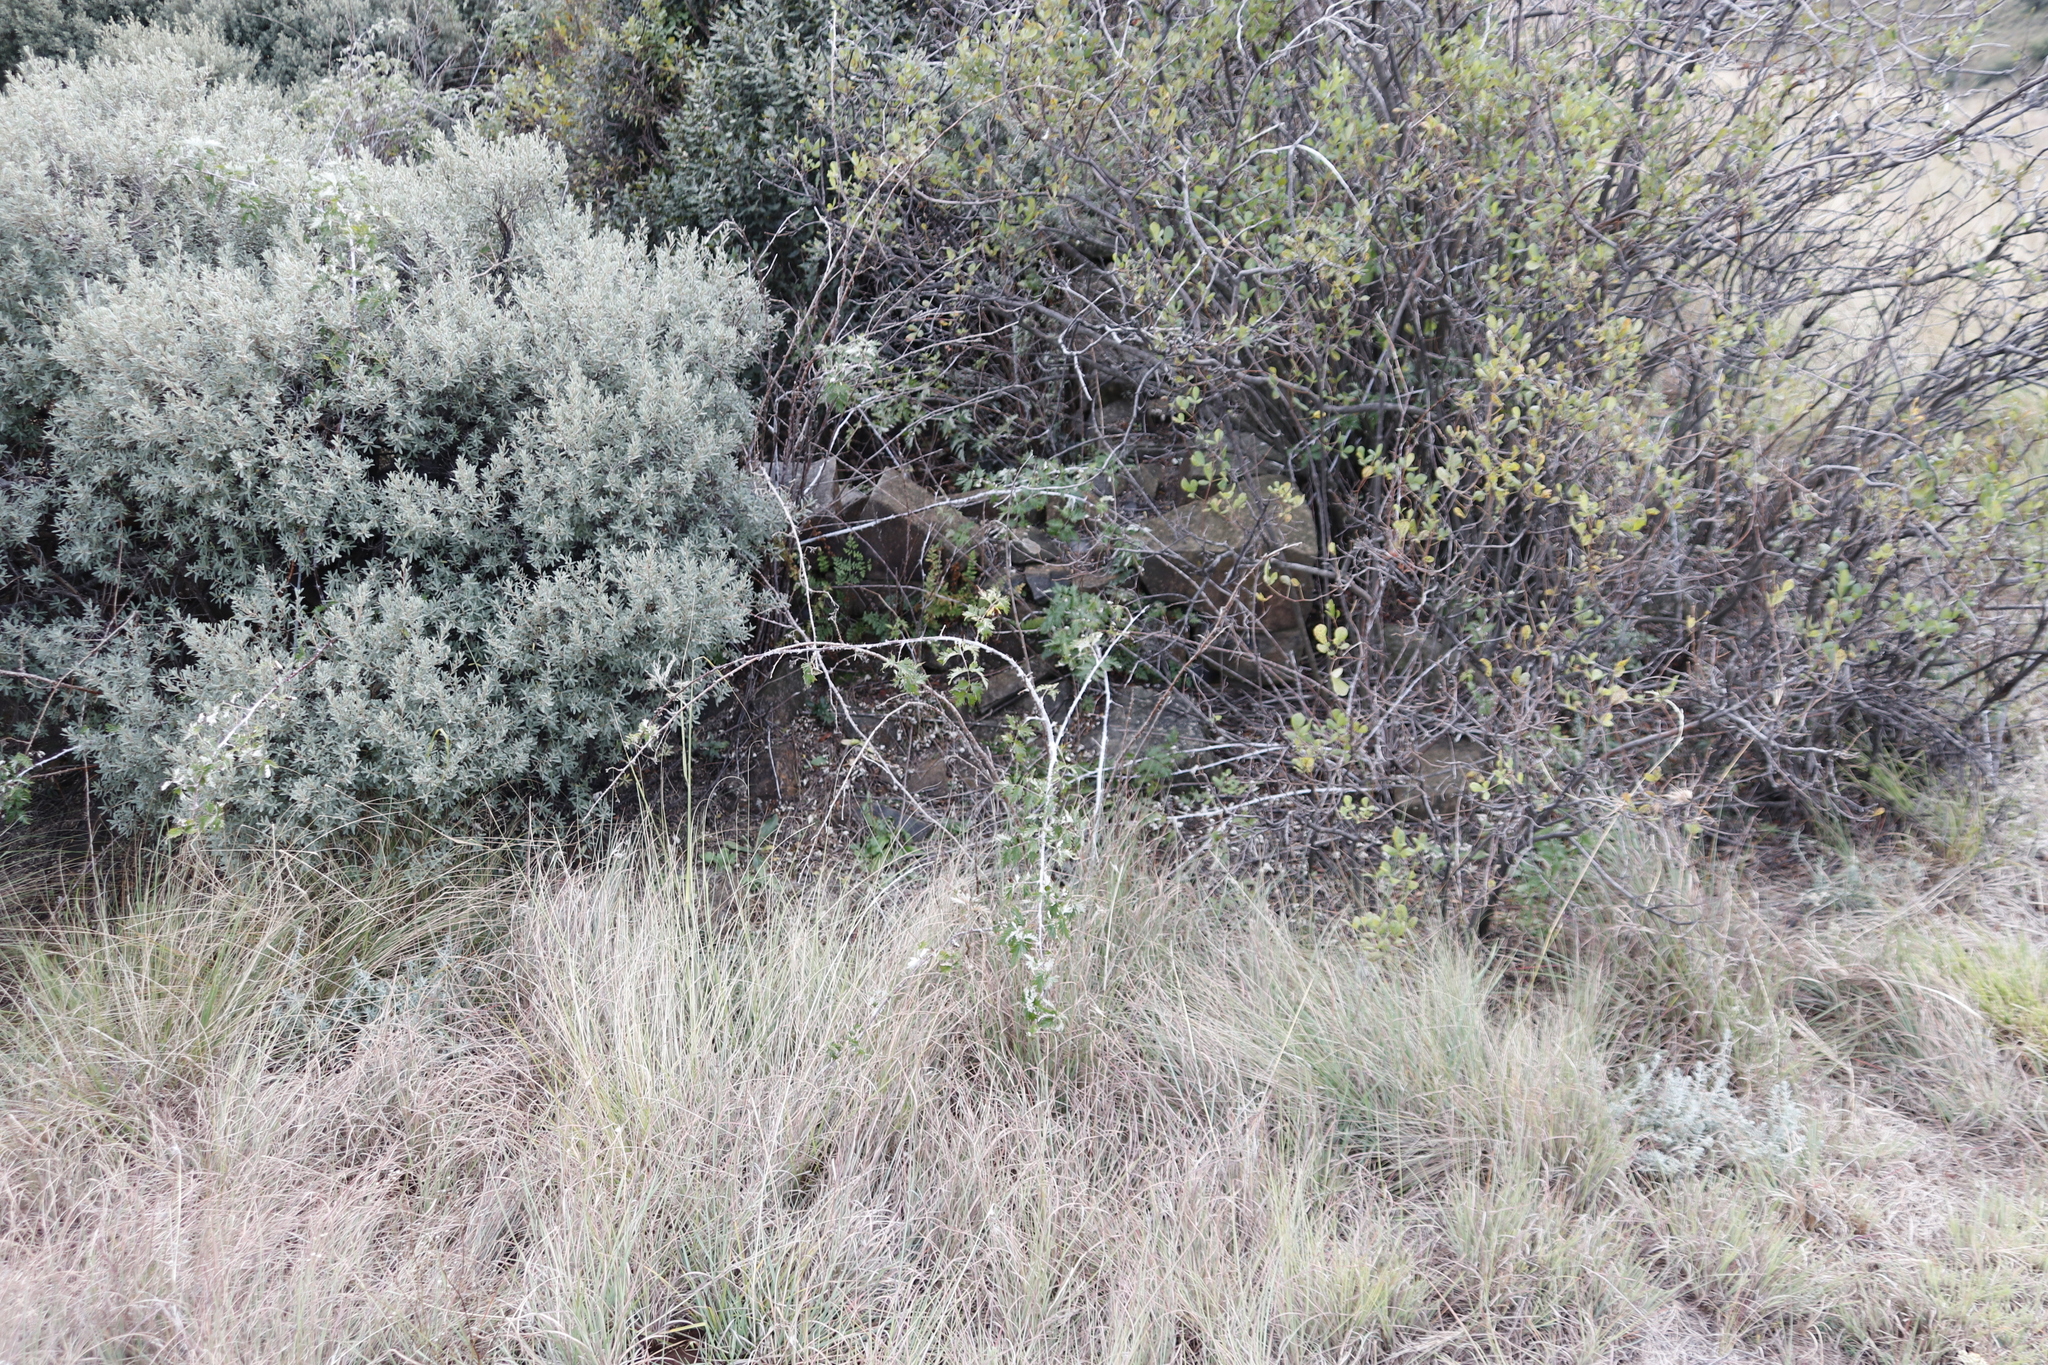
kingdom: Plantae
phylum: Tracheophyta
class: Magnoliopsida
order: Rosales
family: Rosaceae
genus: Rubus
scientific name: Rubus ludwigii
